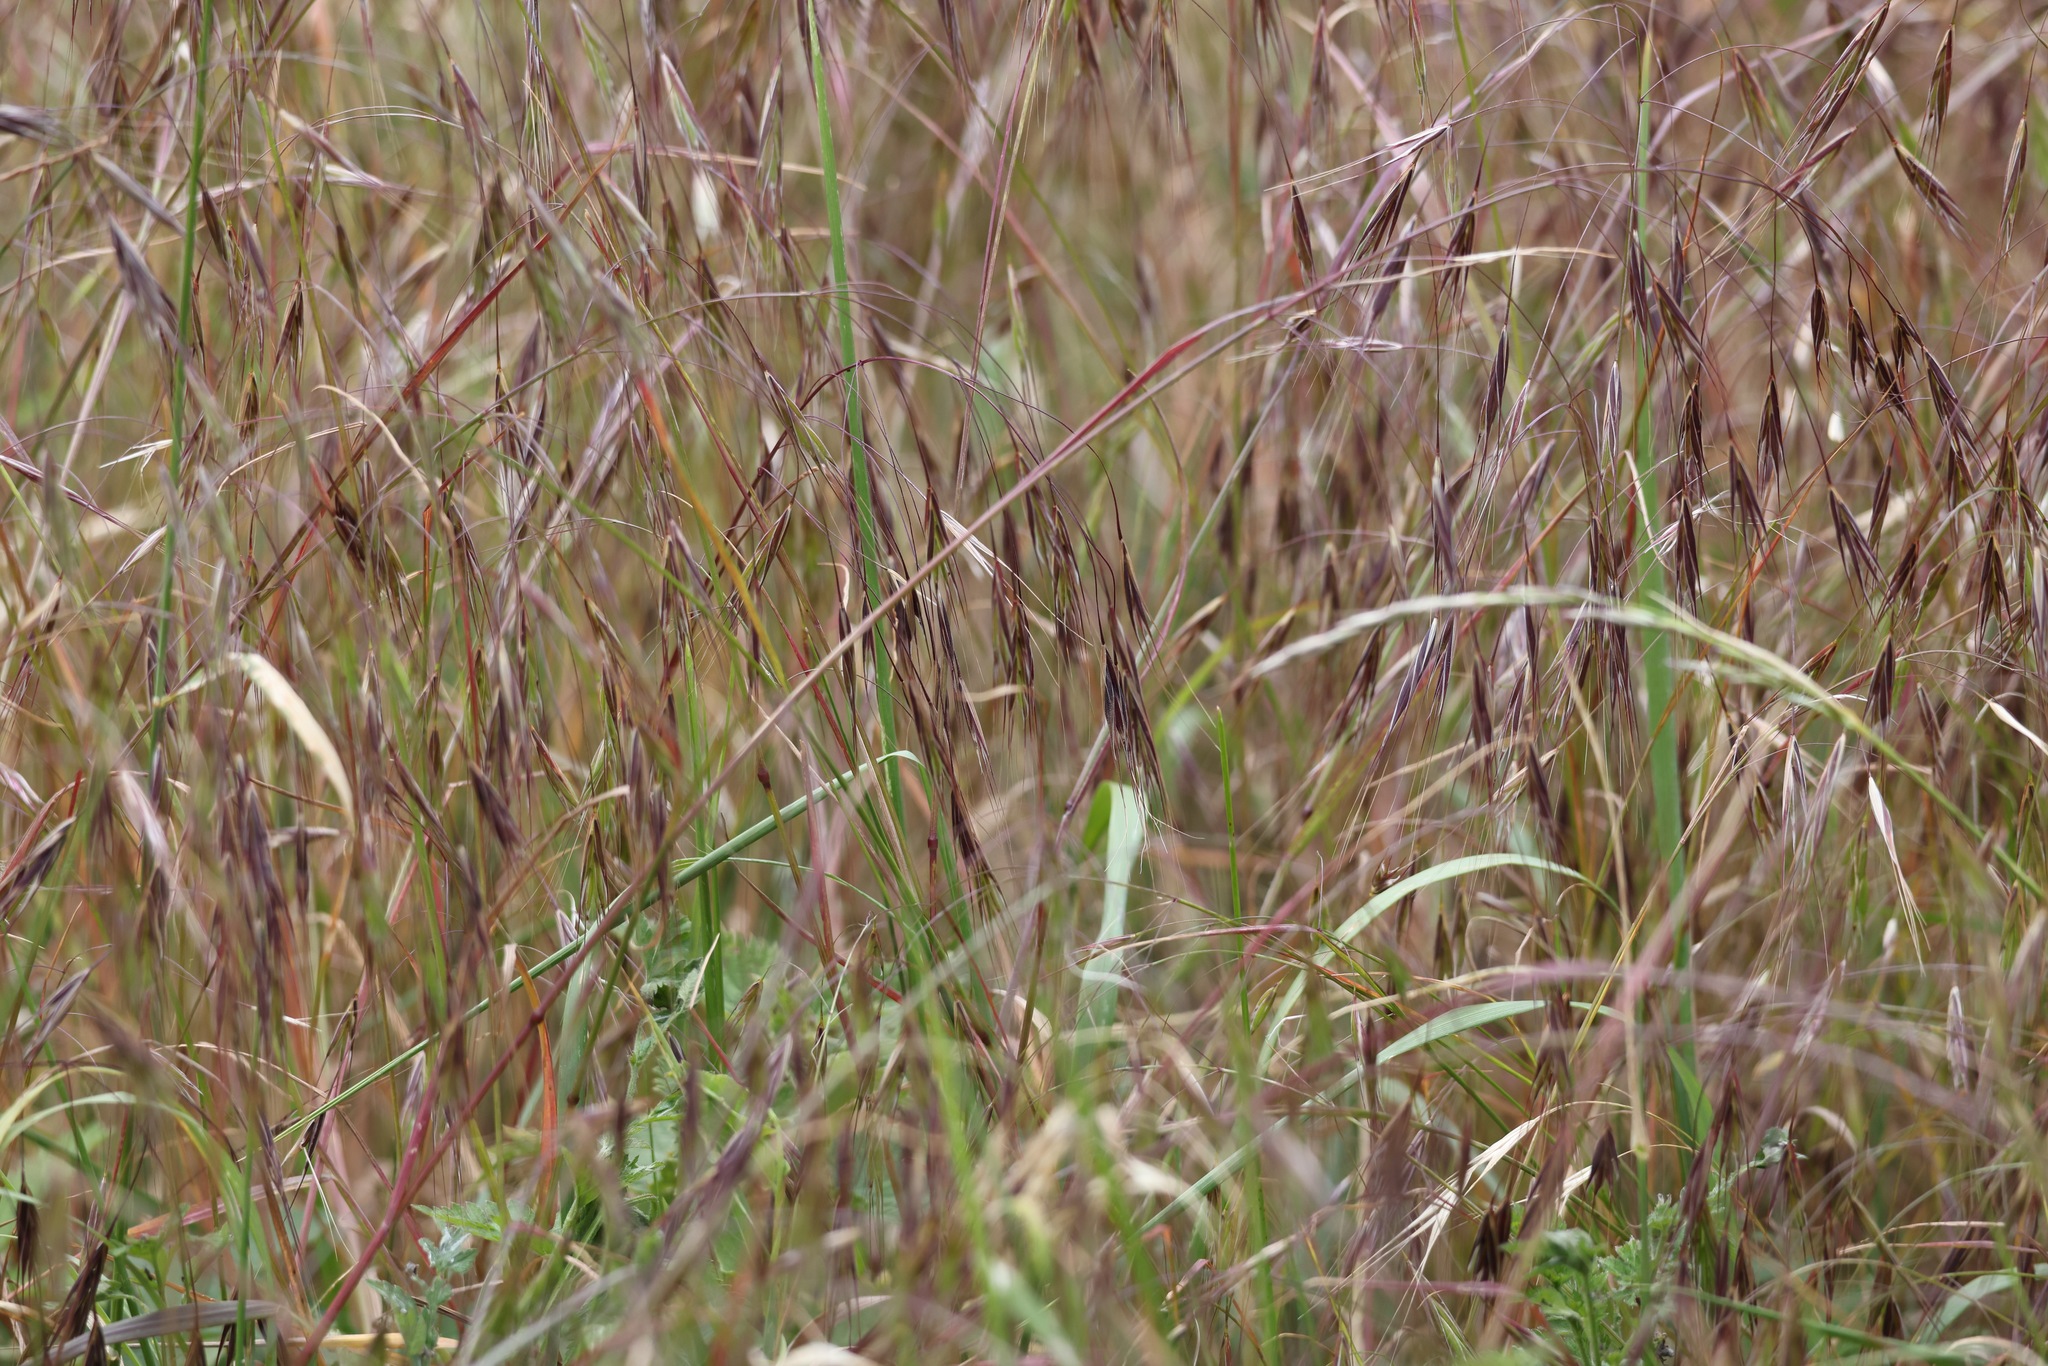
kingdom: Plantae
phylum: Tracheophyta
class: Liliopsida
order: Poales
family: Poaceae
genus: Bromus
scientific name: Bromus sterilis
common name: Poverty brome
